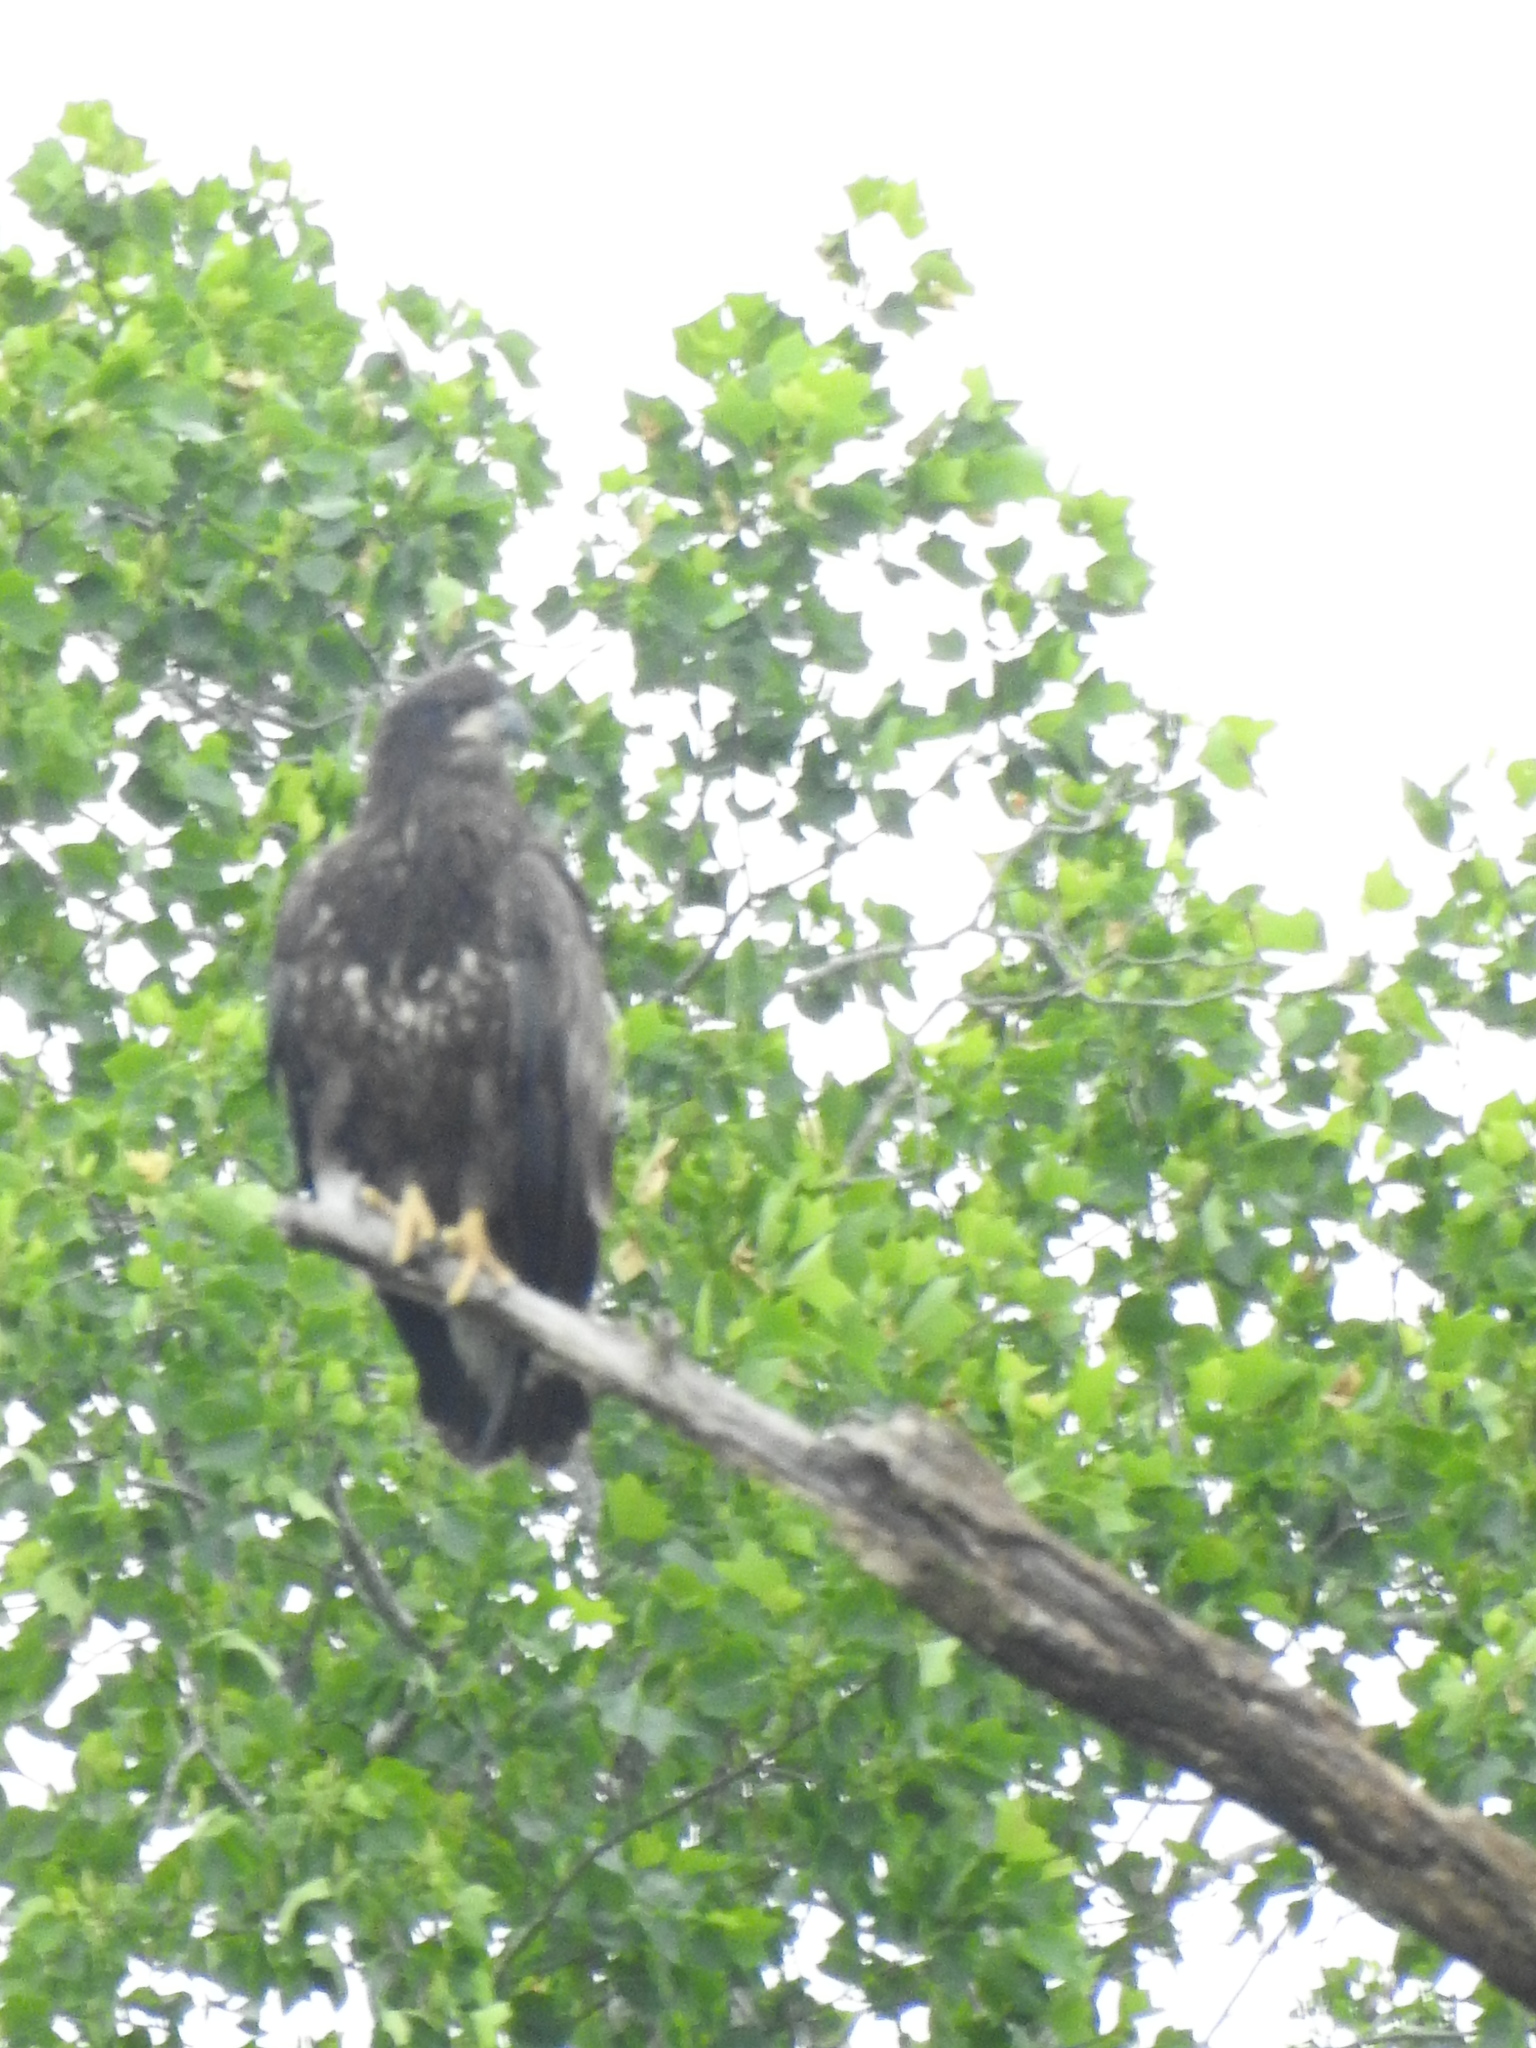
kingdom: Animalia
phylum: Chordata
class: Aves
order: Accipitriformes
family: Accipitridae
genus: Haliaeetus
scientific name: Haliaeetus leucocephalus
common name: Bald eagle
